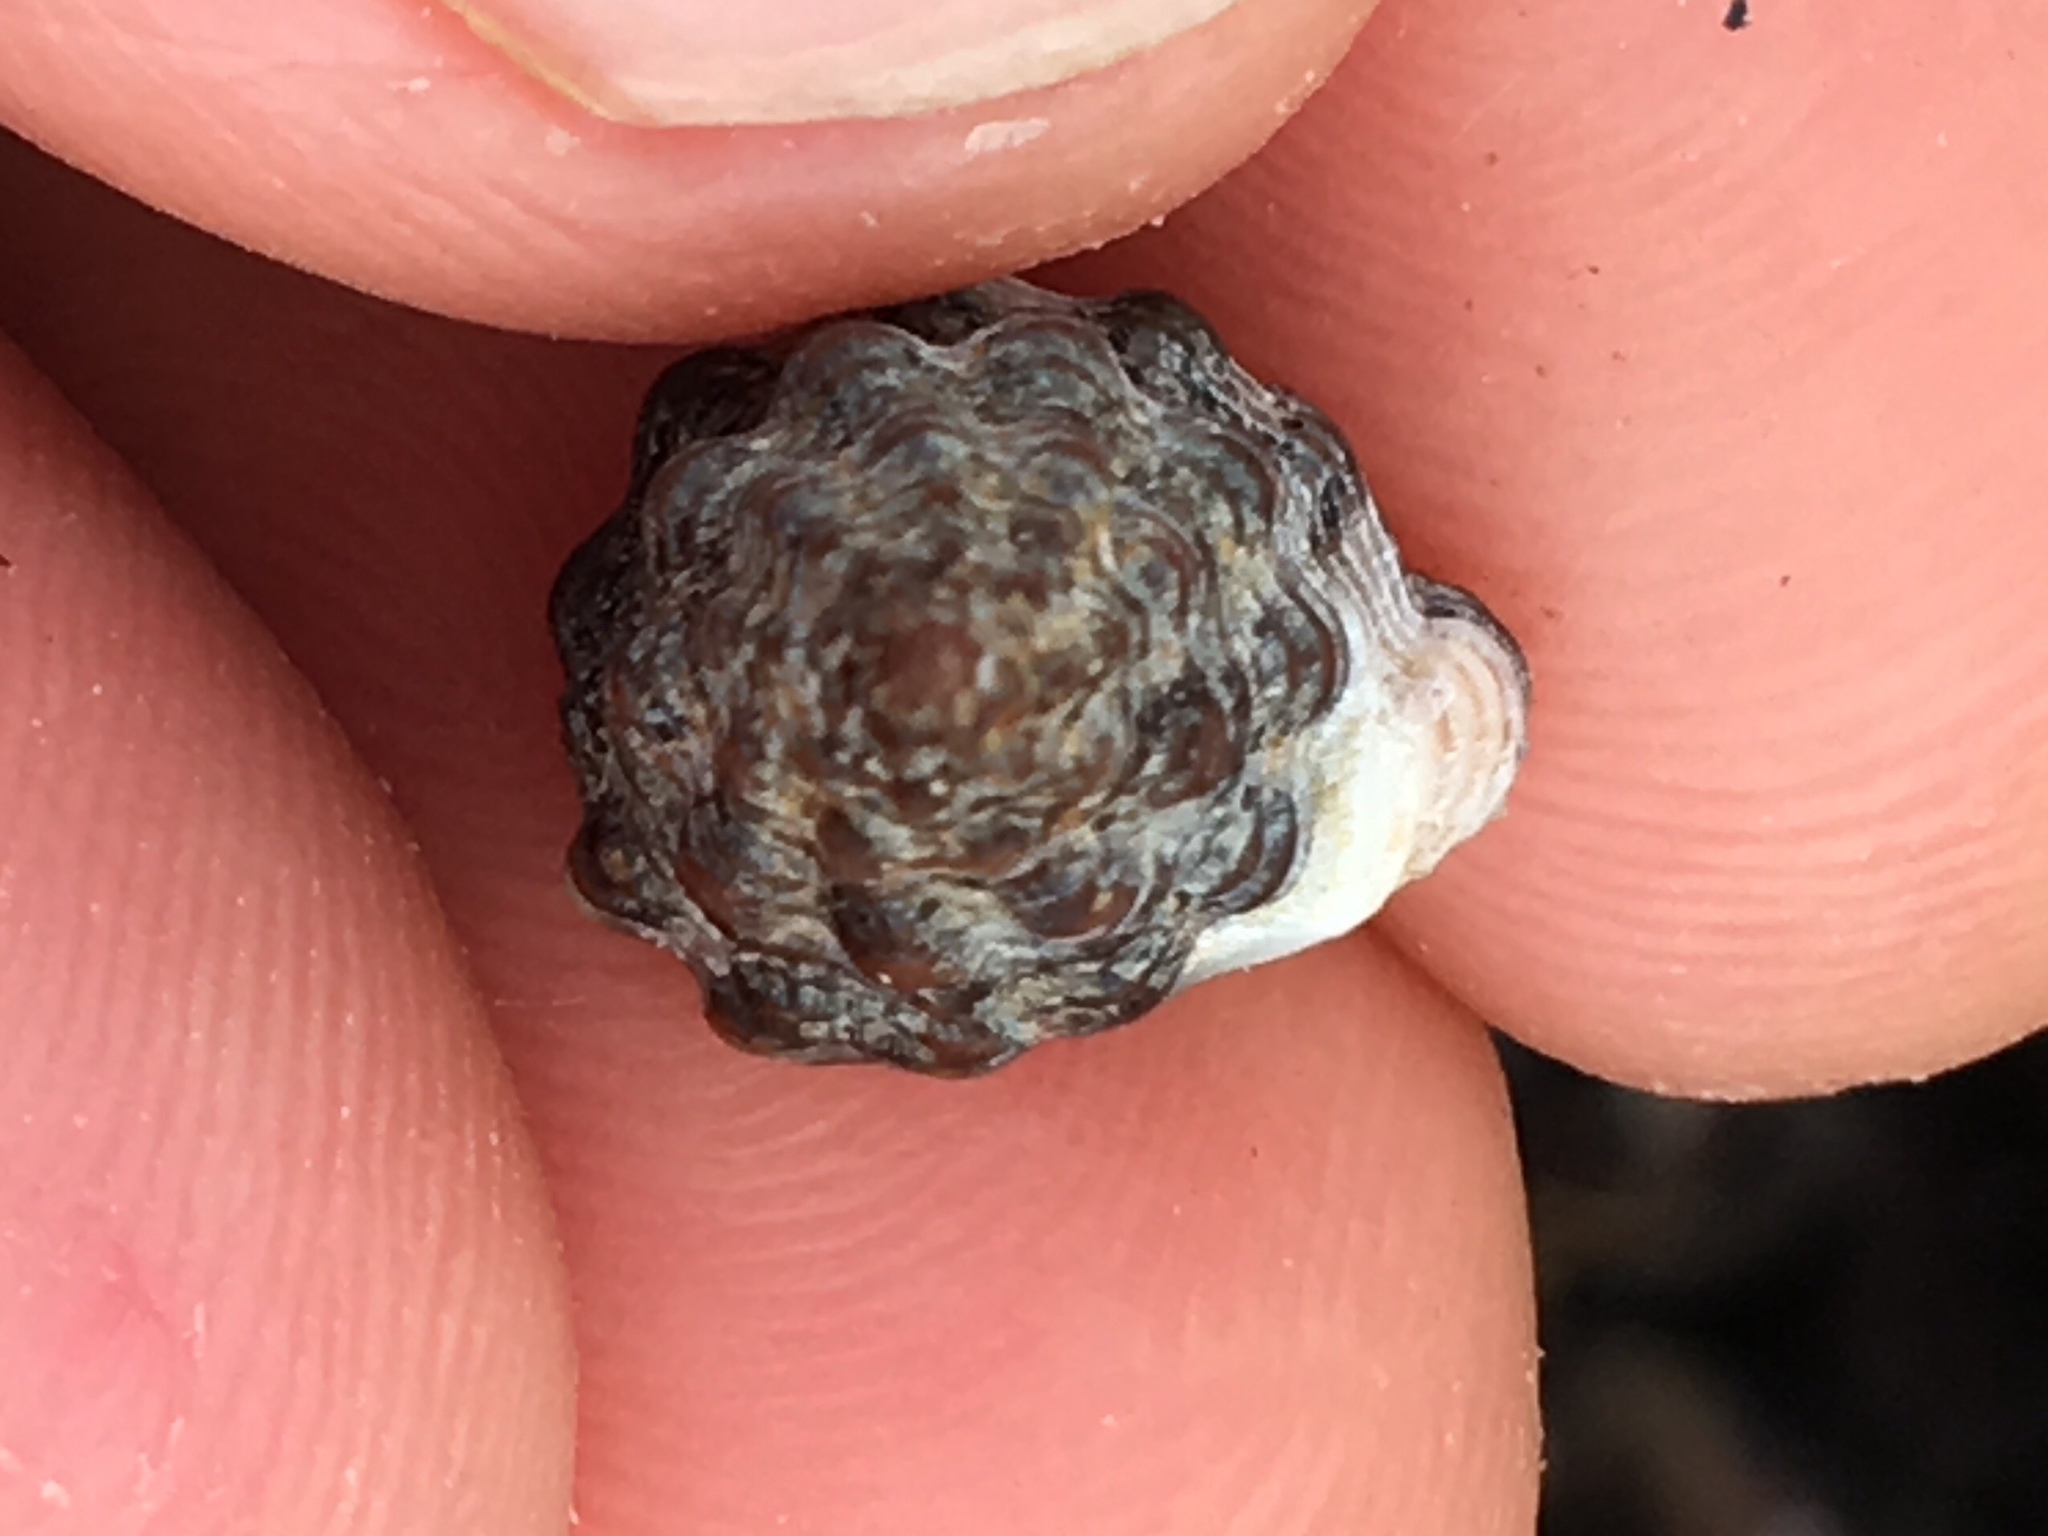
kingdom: Animalia
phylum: Mollusca
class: Gastropoda
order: Neogastropoda
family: Nassariidae
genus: Phrontis
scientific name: Phrontis vibex
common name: Bruised nassa
